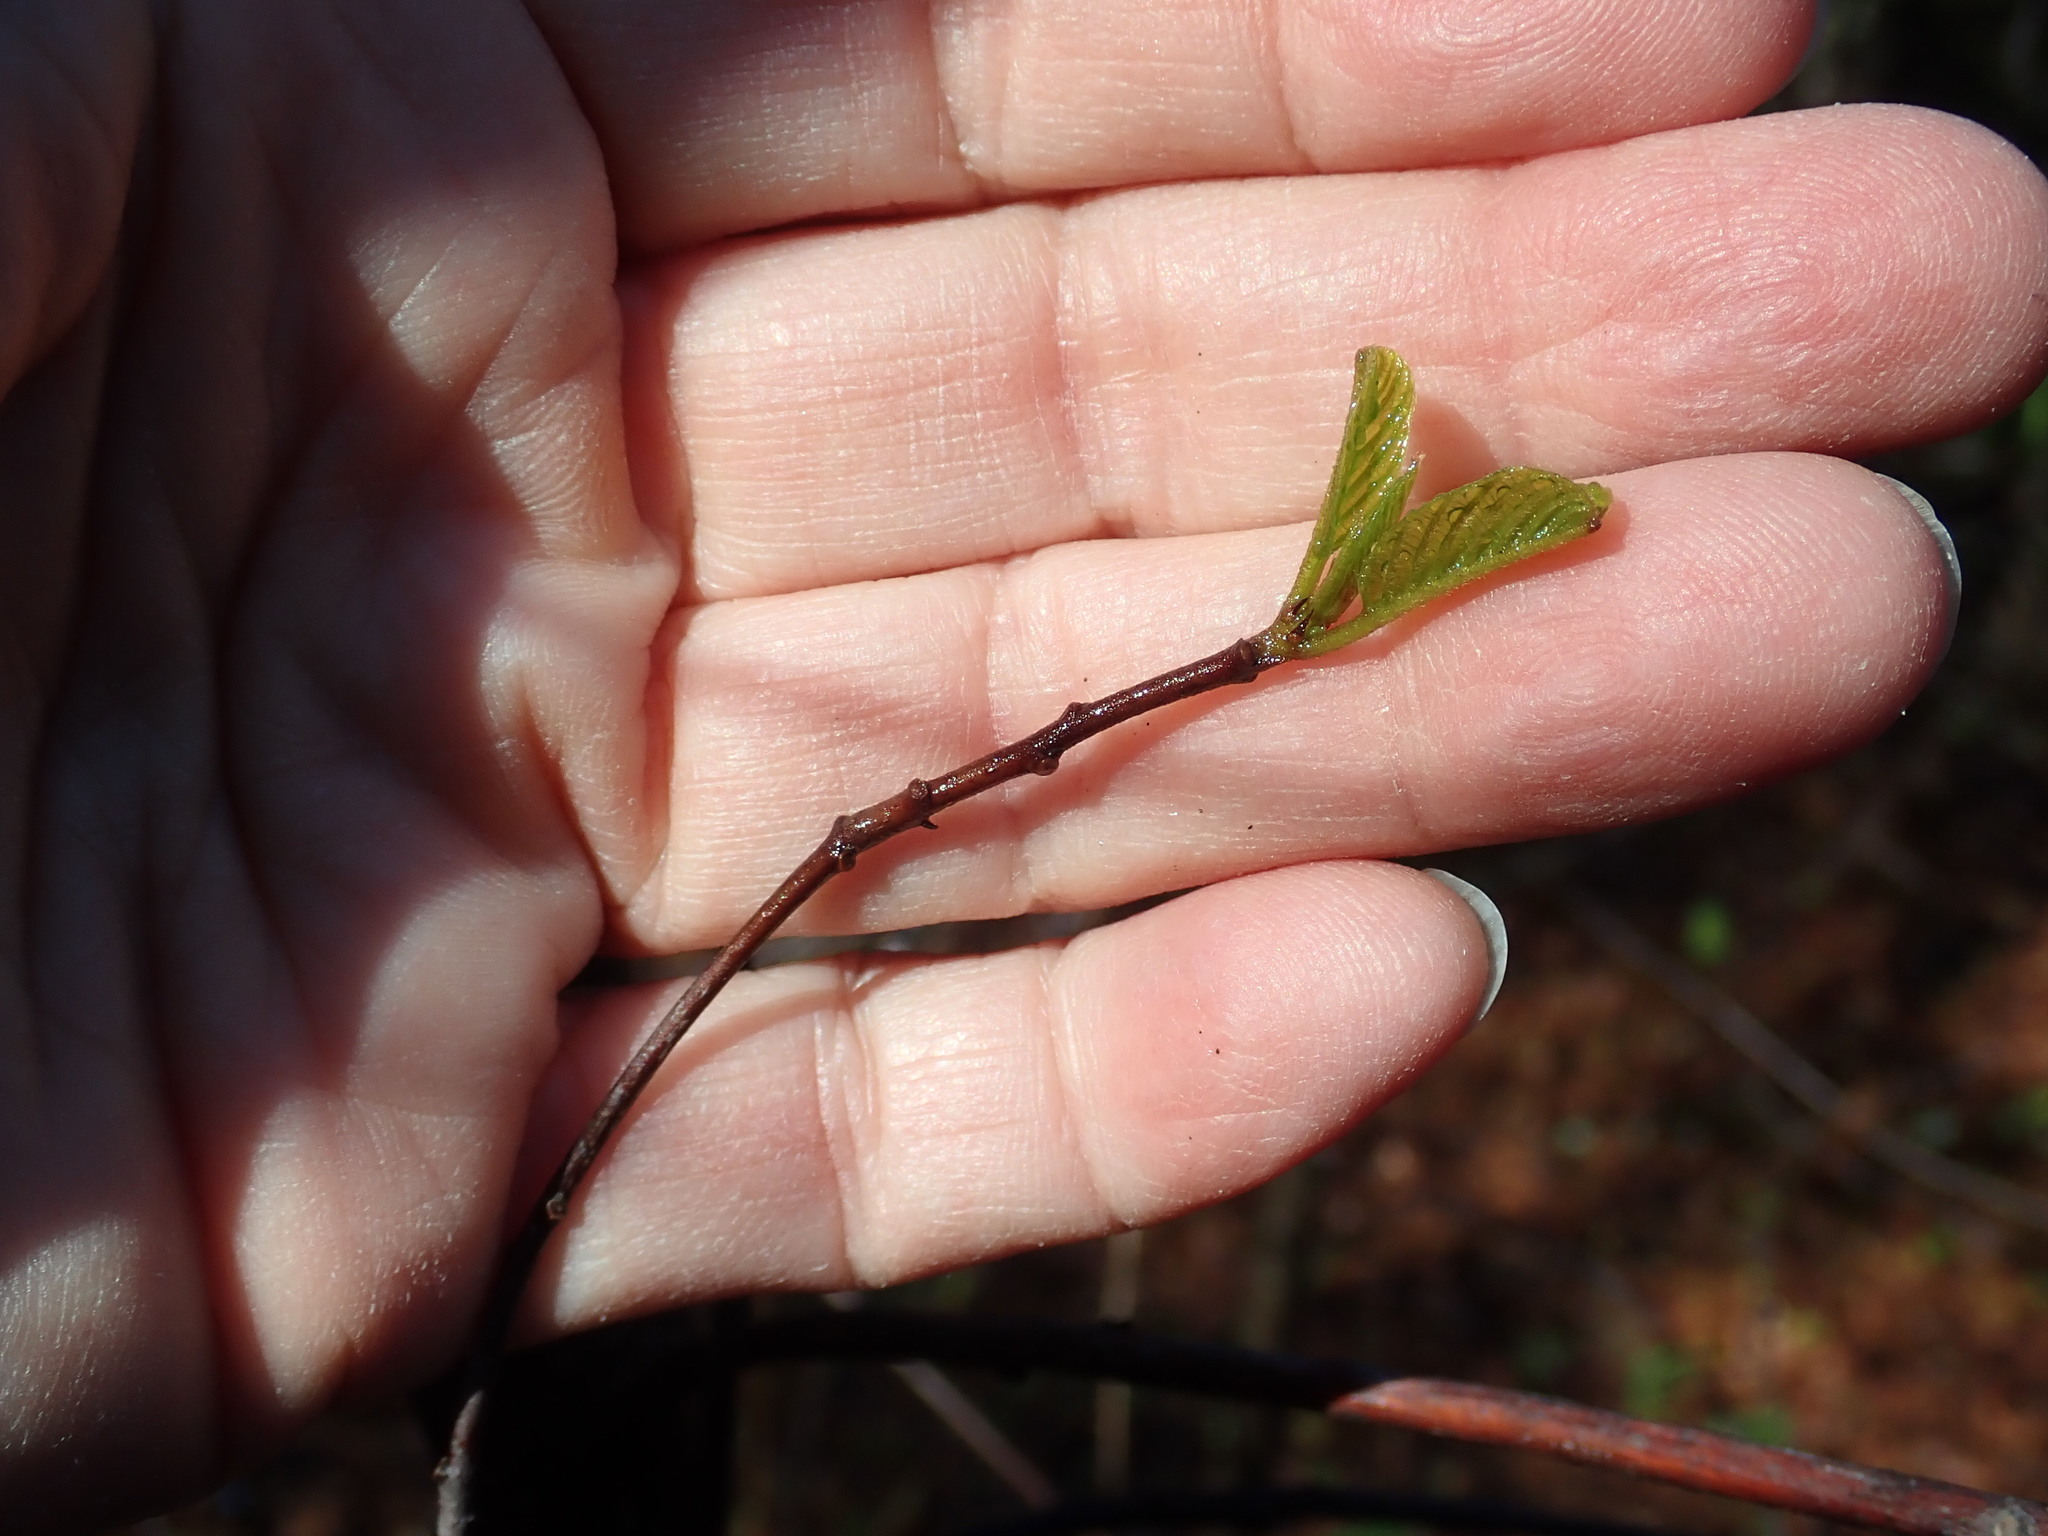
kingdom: Plantae
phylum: Tracheophyta
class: Magnoliopsida
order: Rosales
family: Rhamnaceae
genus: Frangula
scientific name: Frangula alnus
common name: Alder buckthorn
